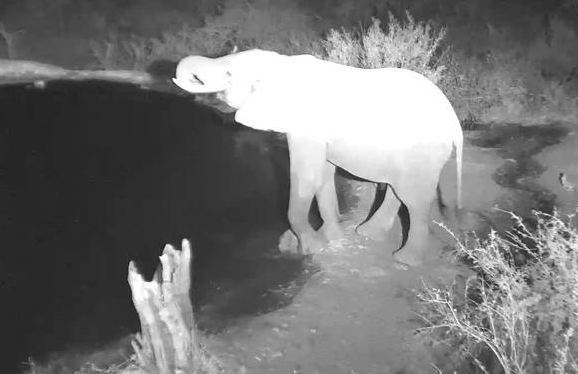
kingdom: Animalia
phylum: Chordata
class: Mammalia
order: Proboscidea
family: Elephantidae
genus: Loxodonta
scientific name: Loxodonta africana
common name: African elephant
